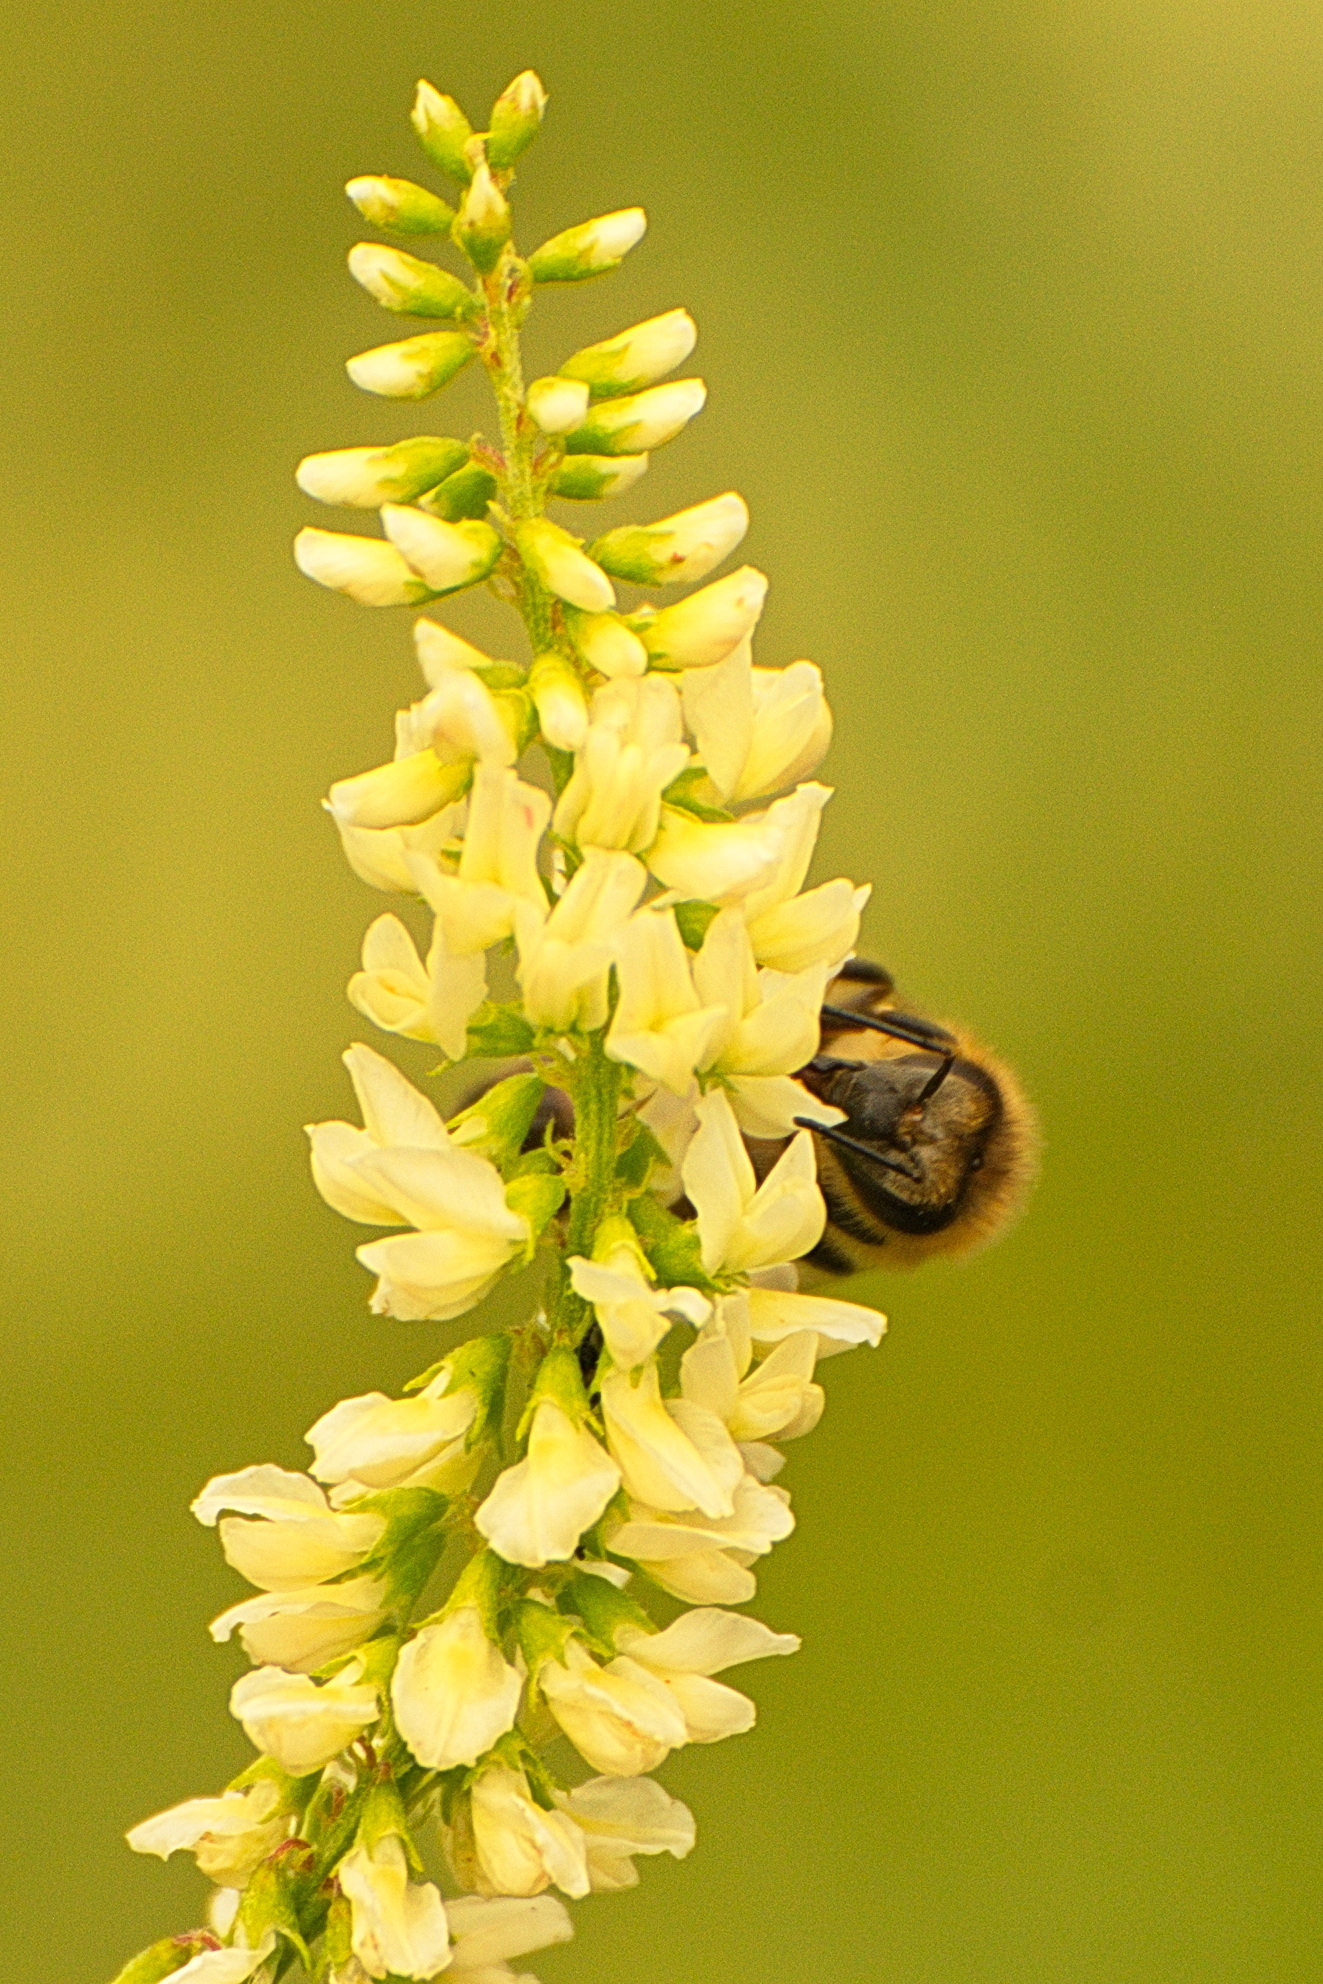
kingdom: Animalia
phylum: Arthropoda
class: Insecta
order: Hymenoptera
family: Apidae
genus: Apis
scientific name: Apis mellifera
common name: Honey bee
